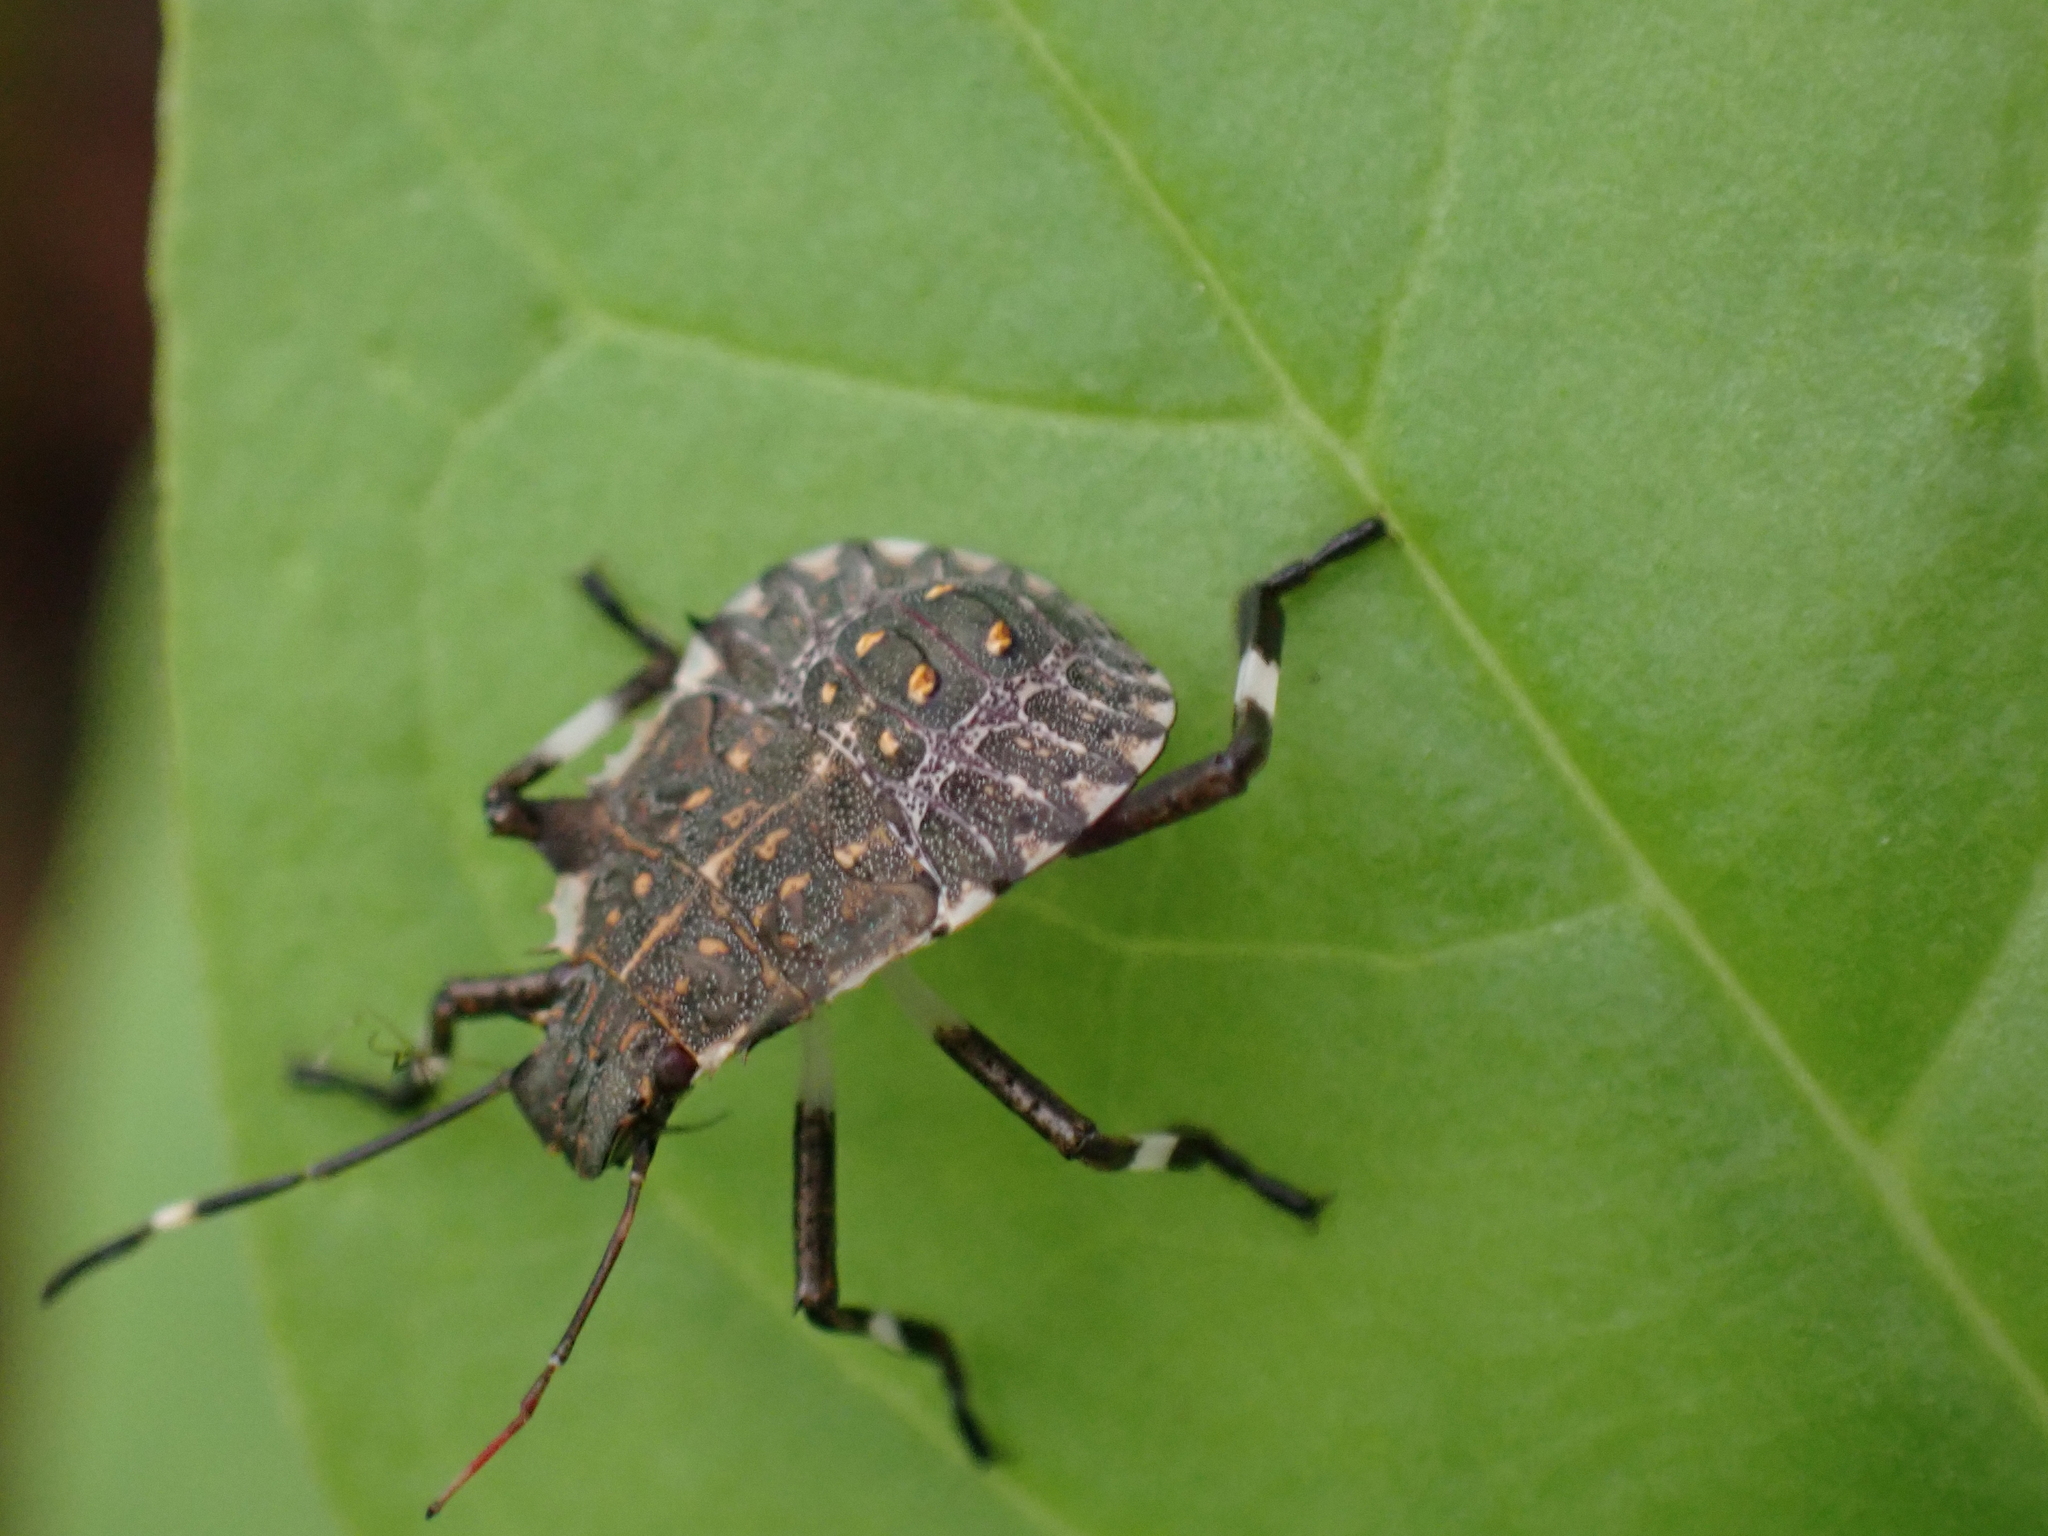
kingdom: Animalia
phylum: Arthropoda
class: Insecta
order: Hemiptera
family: Pentatomidae
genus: Halyomorpha
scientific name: Halyomorpha halys
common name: Brown marmorated stink bug
